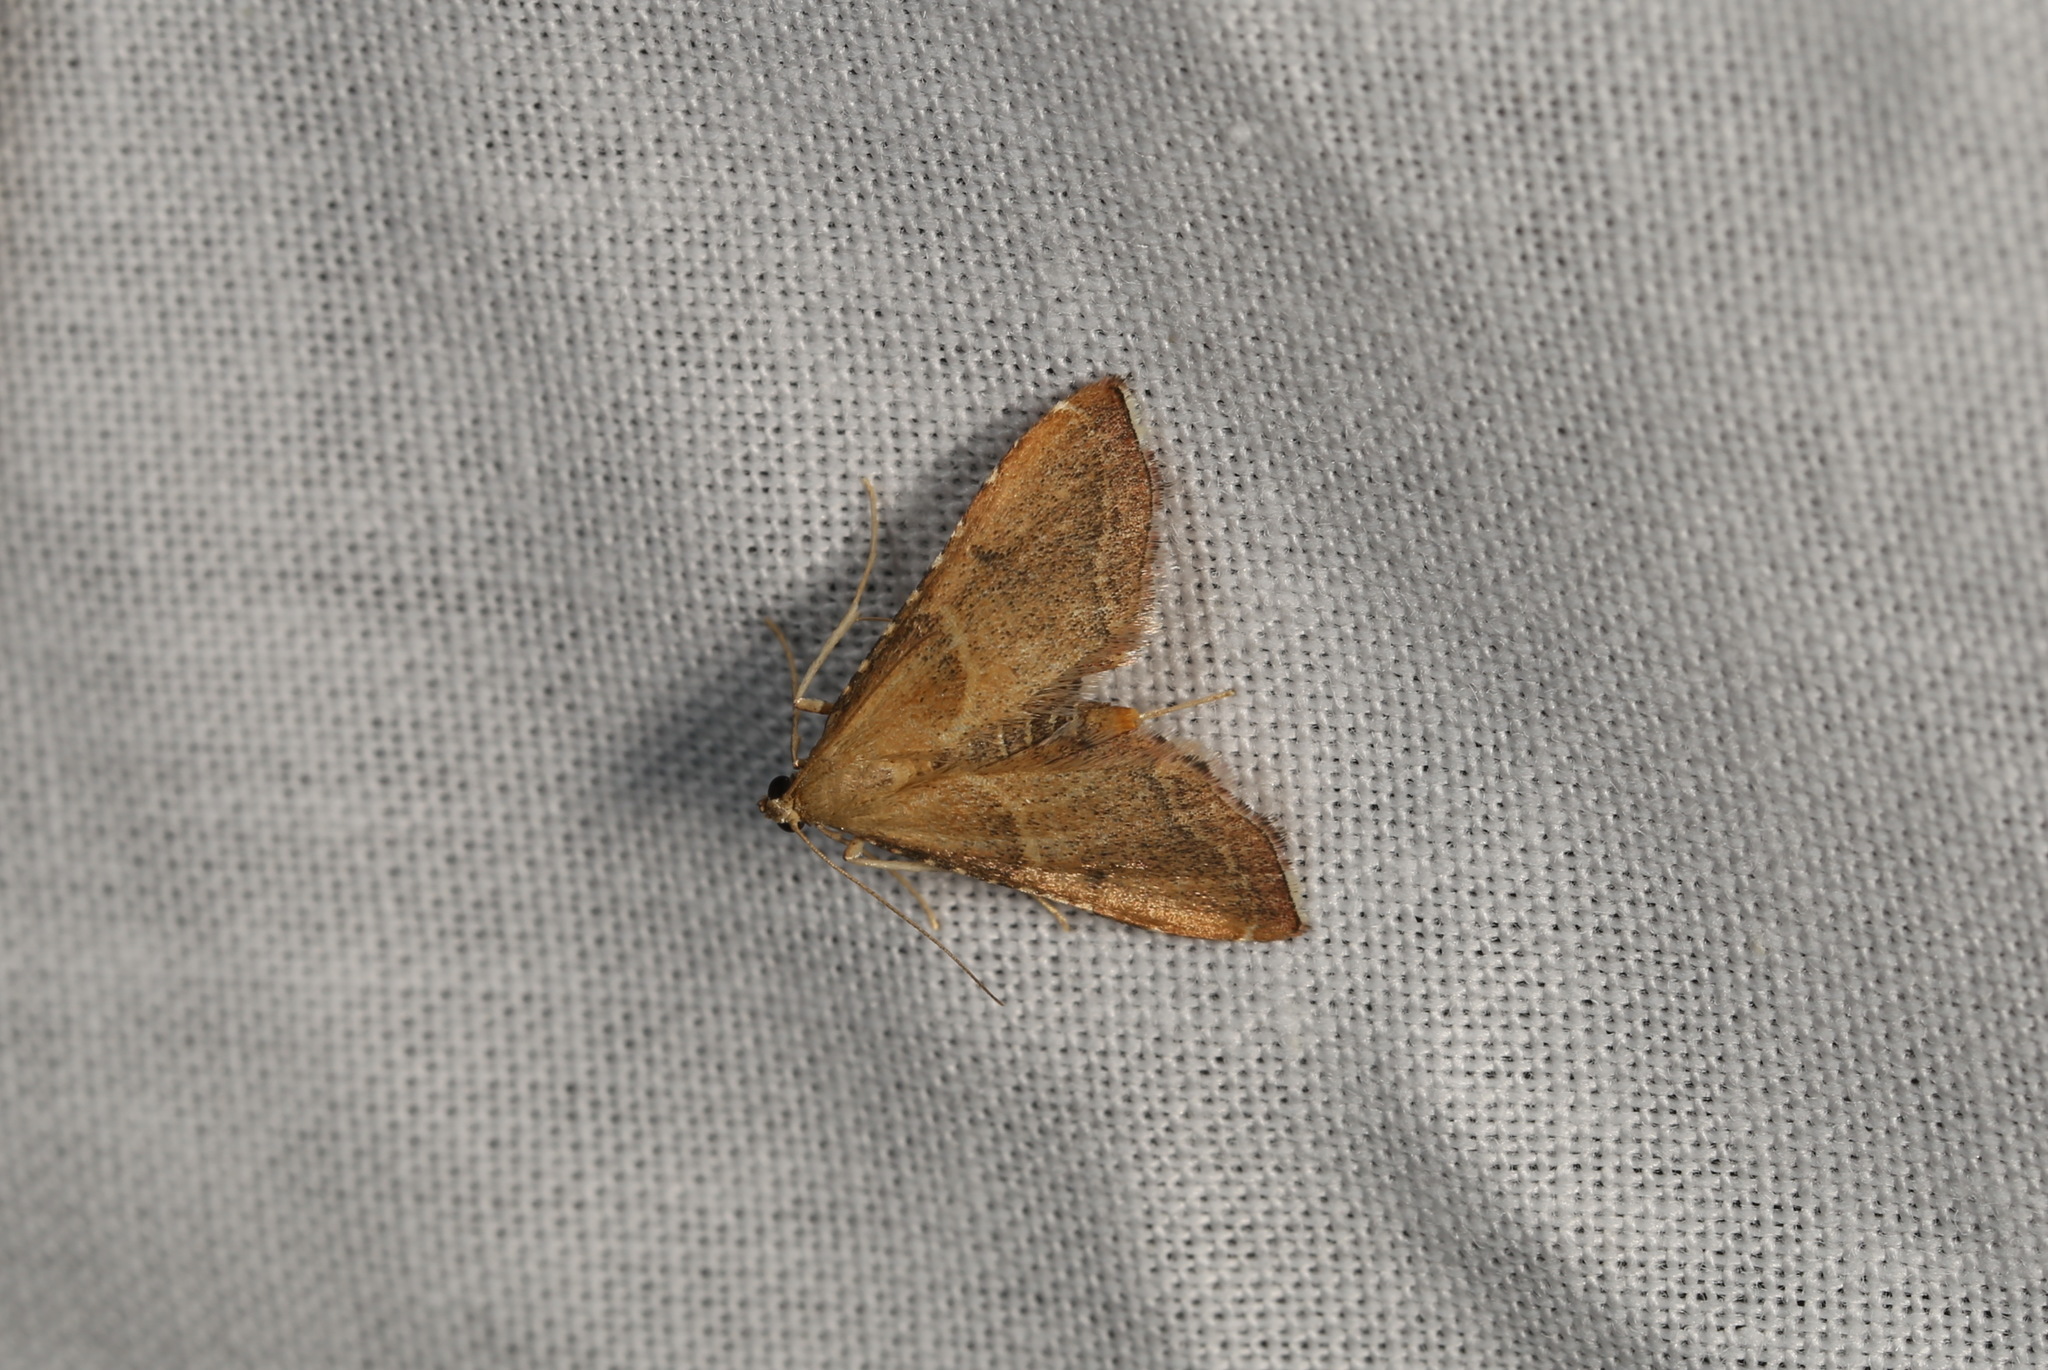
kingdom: Animalia
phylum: Arthropoda
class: Insecta
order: Lepidoptera
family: Pyralidae
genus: Endotricha
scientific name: Endotricha flammealis
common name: Rosy tabby
